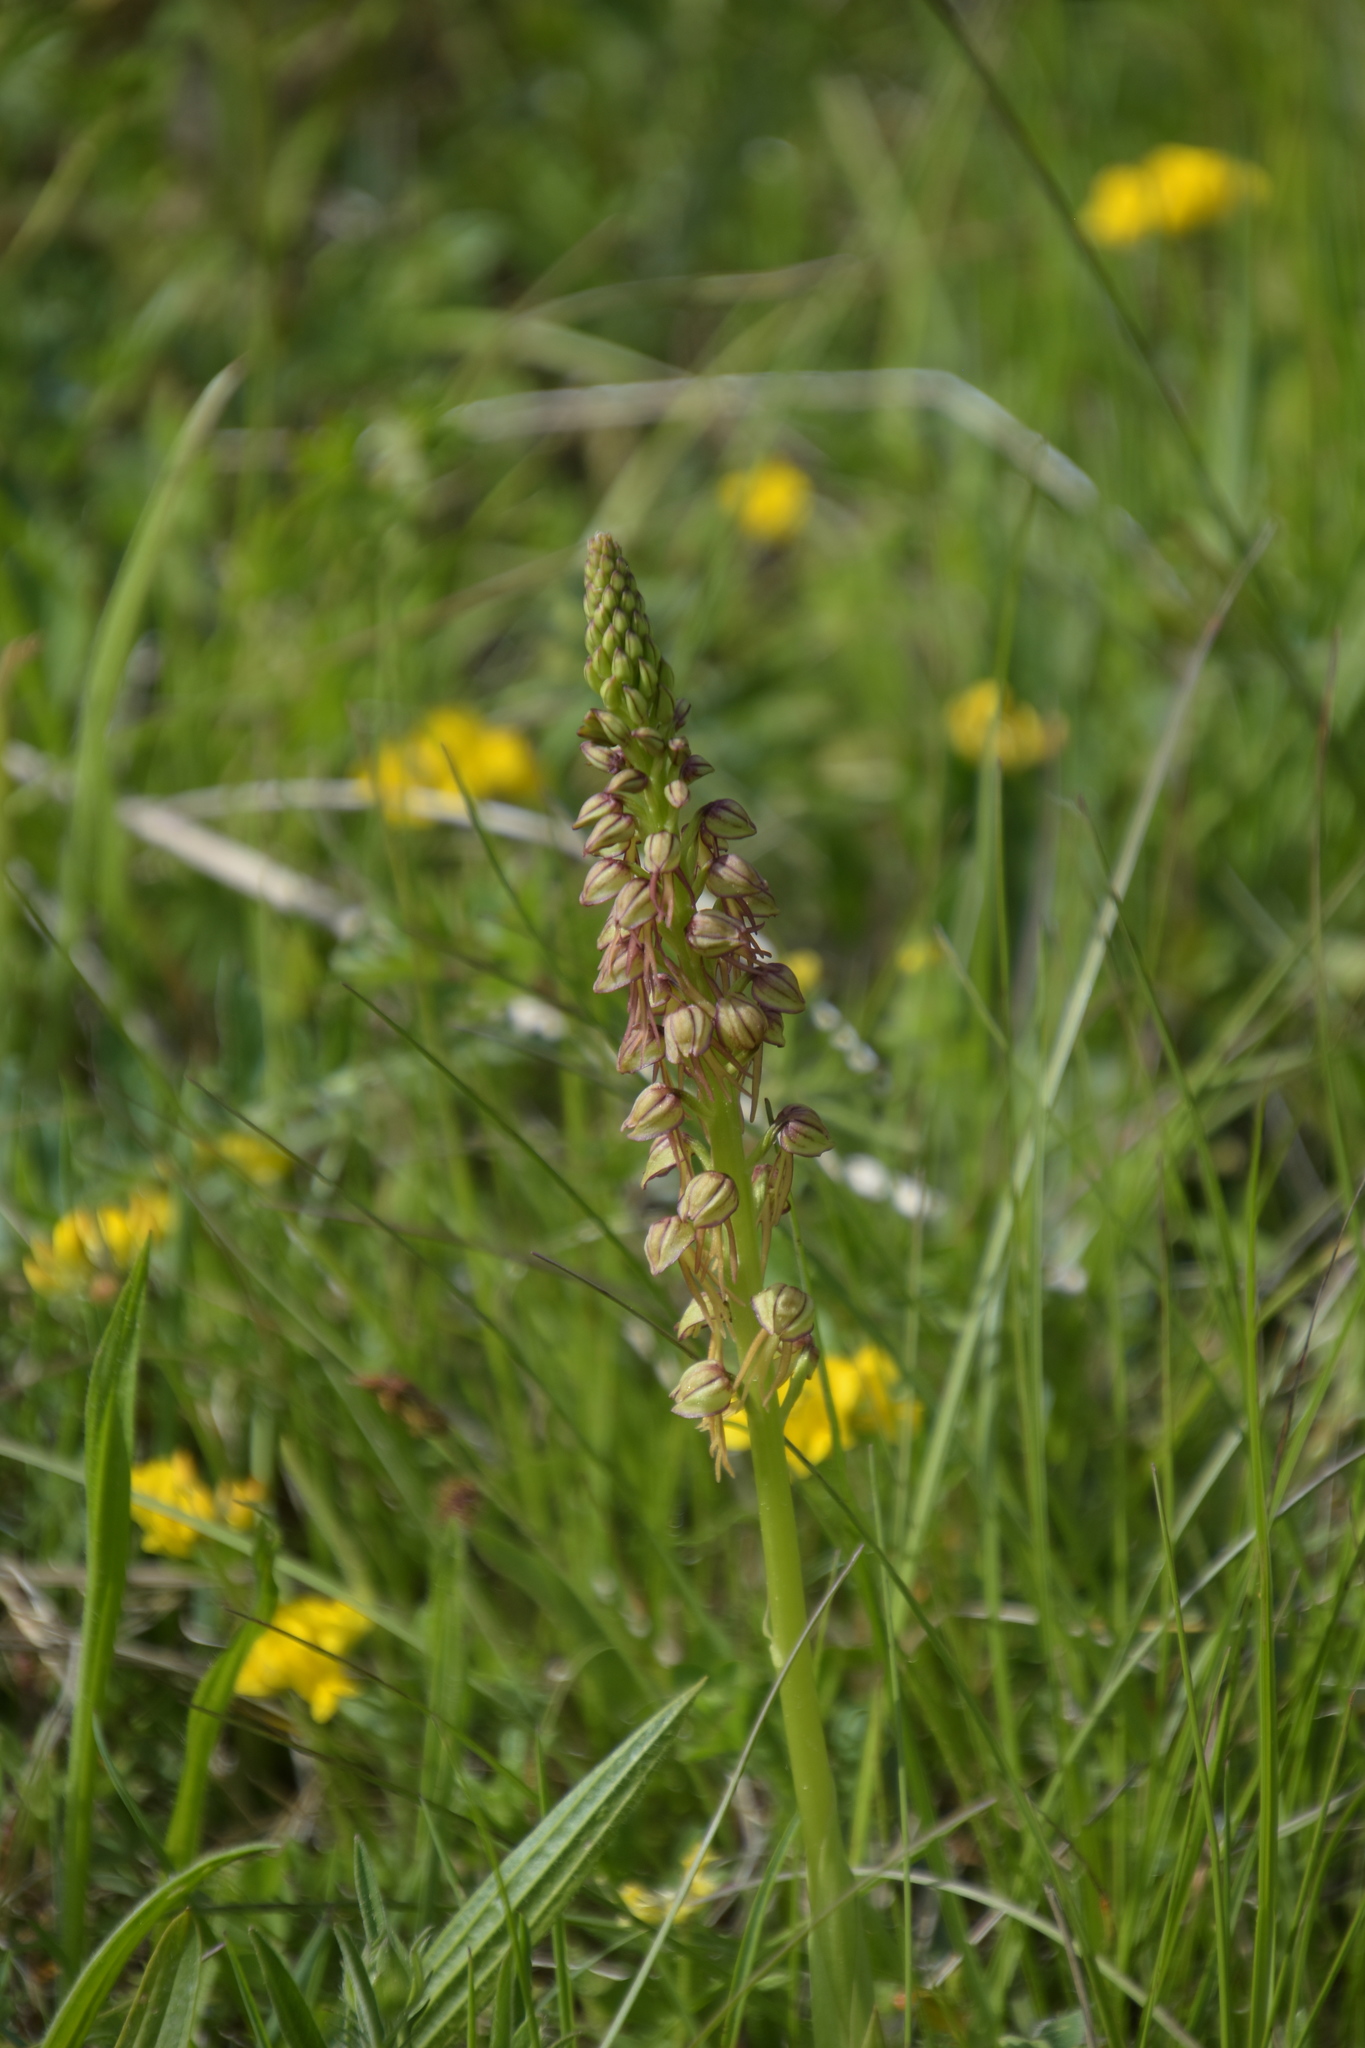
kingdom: Plantae
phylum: Tracheophyta
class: Liliopsida
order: Asparagales
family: Orchidaceae
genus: Orchis
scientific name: Orchis anthropophora
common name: Man orchid
